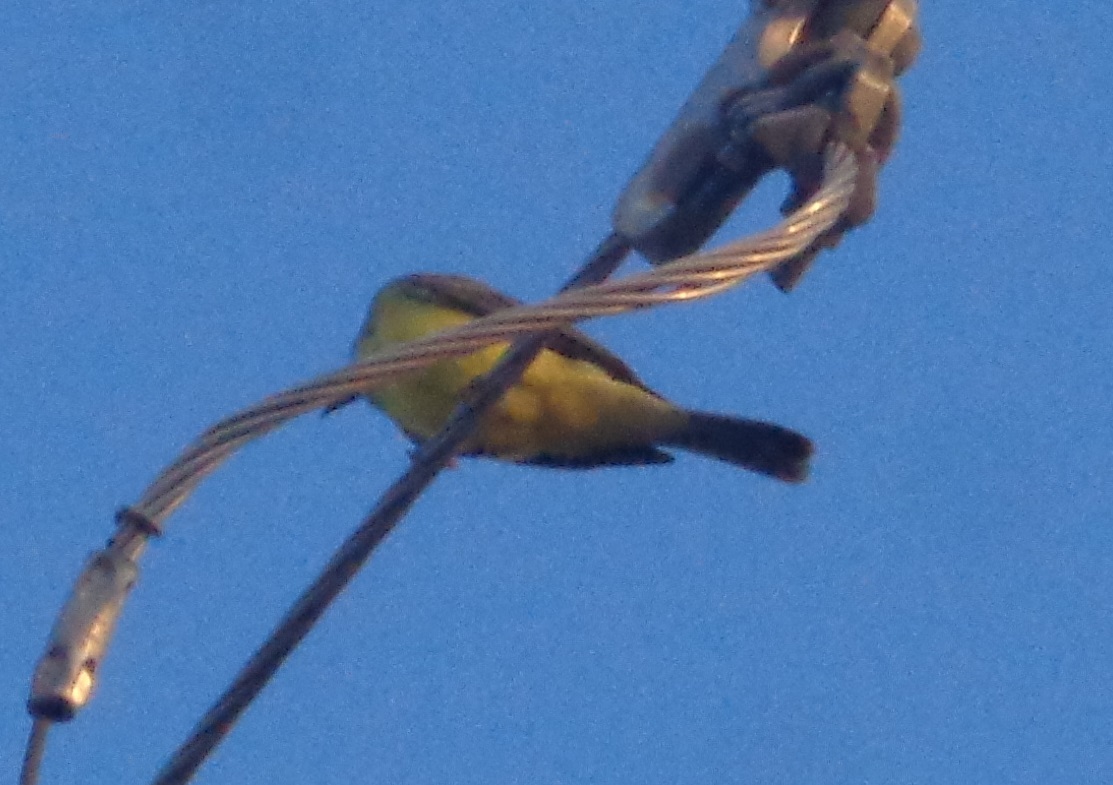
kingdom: Animalia
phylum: Chordata
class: Aves
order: Passeriformes
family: Tyrannidae
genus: Pitangus
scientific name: Pitangus sulphuratus
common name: Great kiskadee
